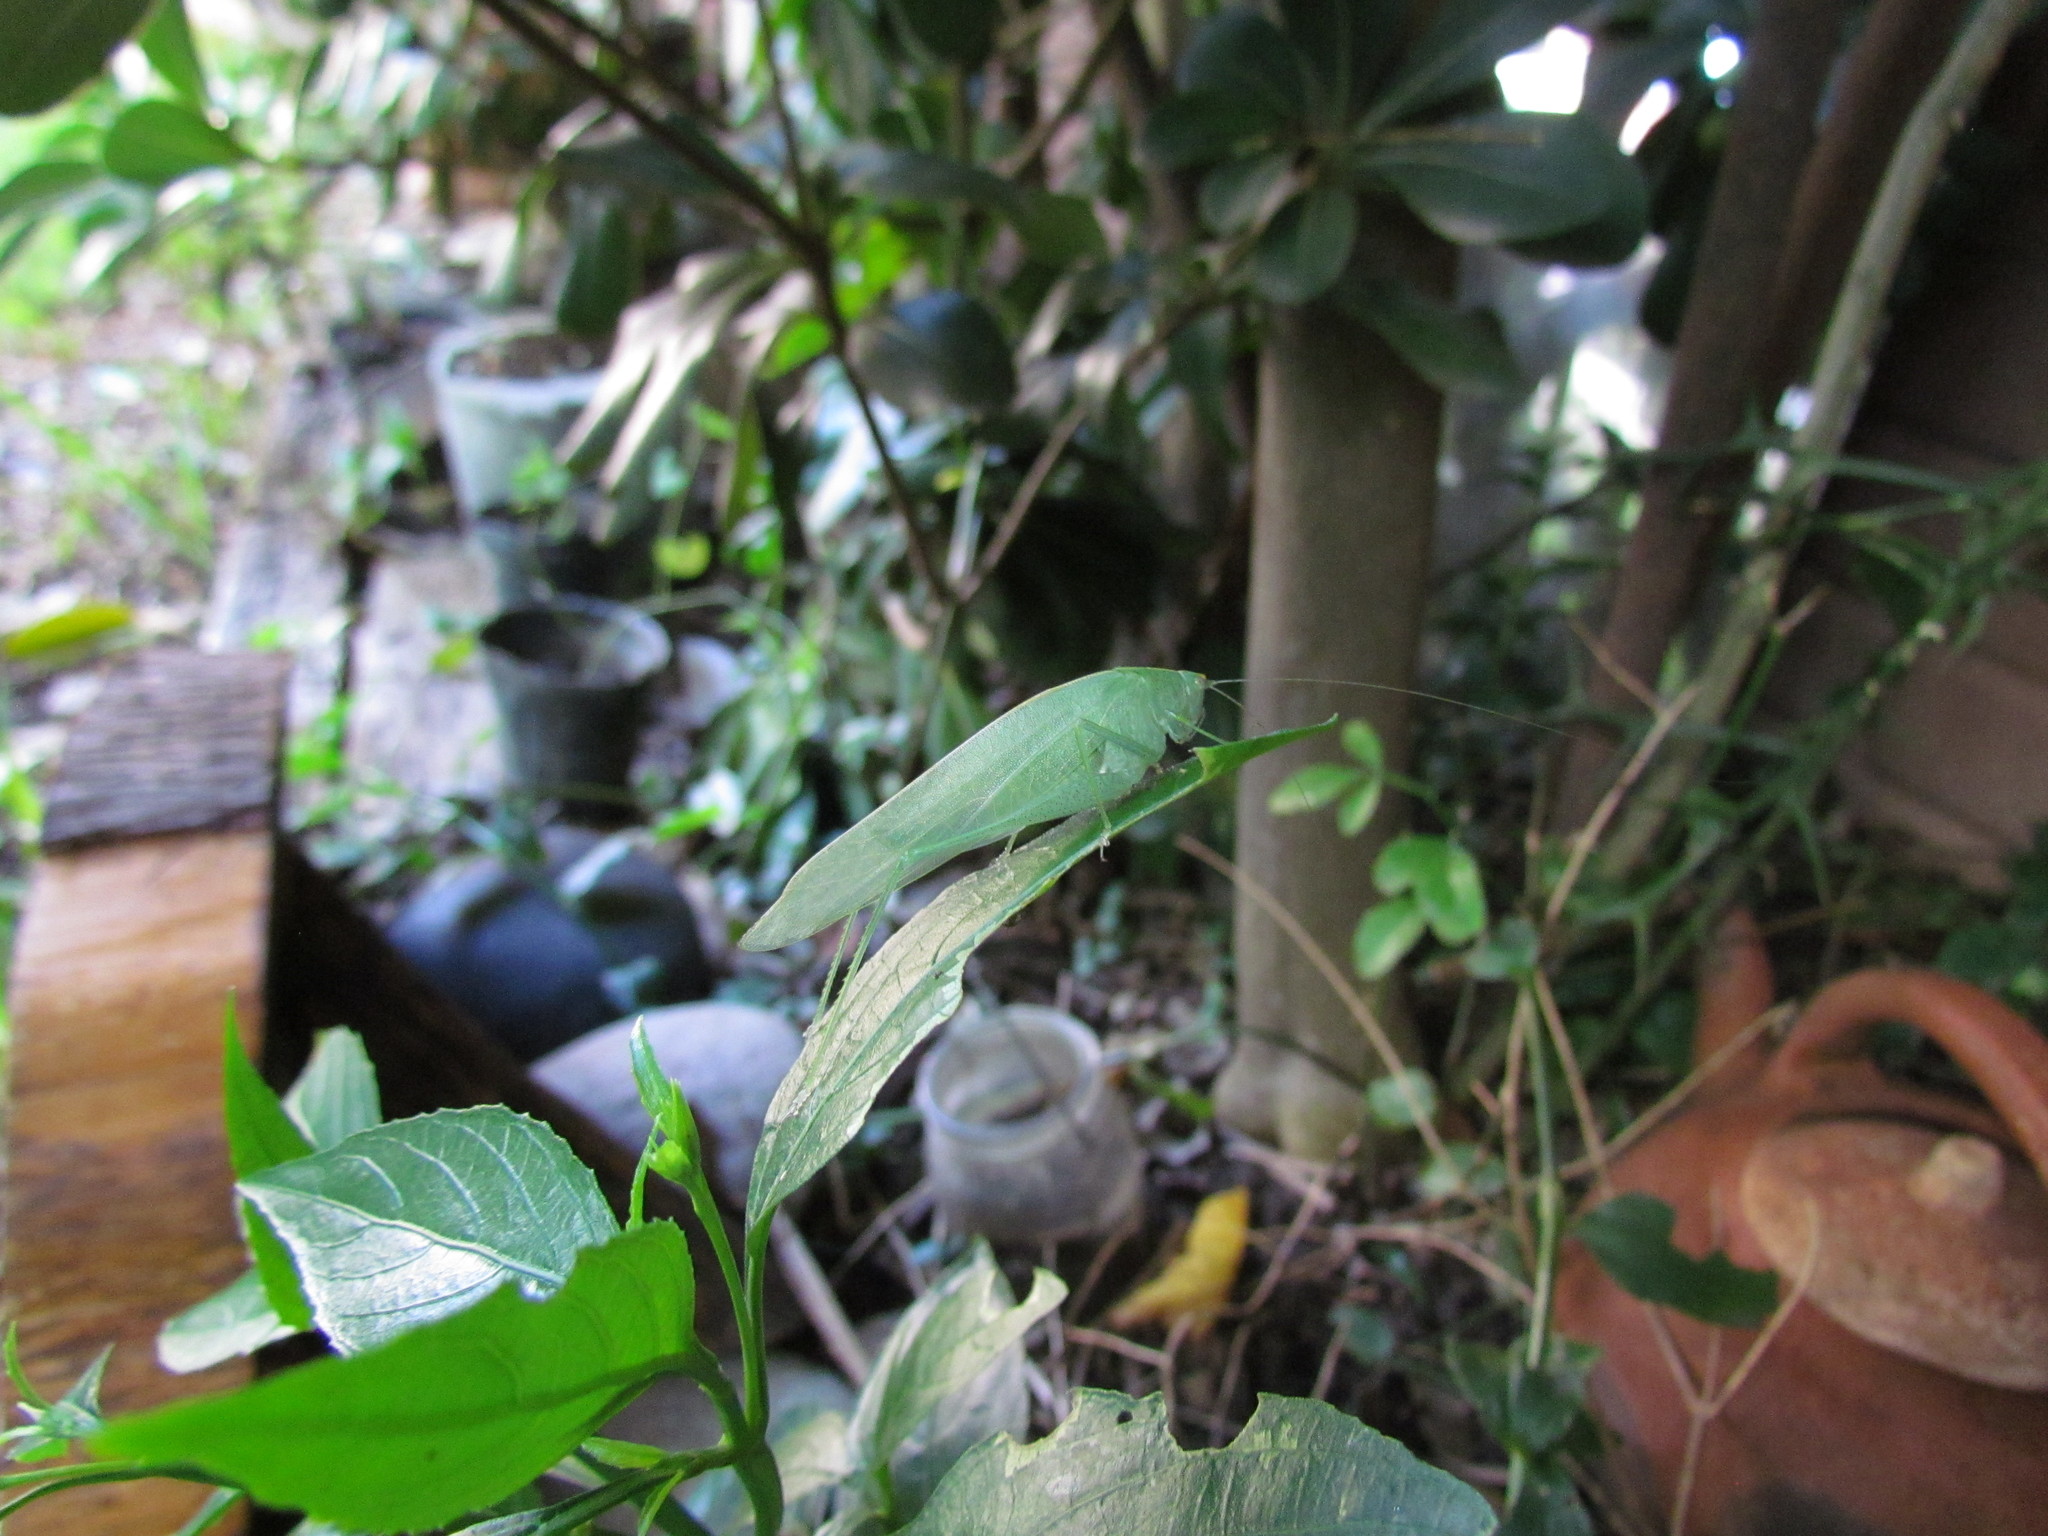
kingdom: Animalia
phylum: Arthropoda
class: Insecta
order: Orthoptera
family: Tettigoniidae
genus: Grammadera
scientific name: Grammadera clara
